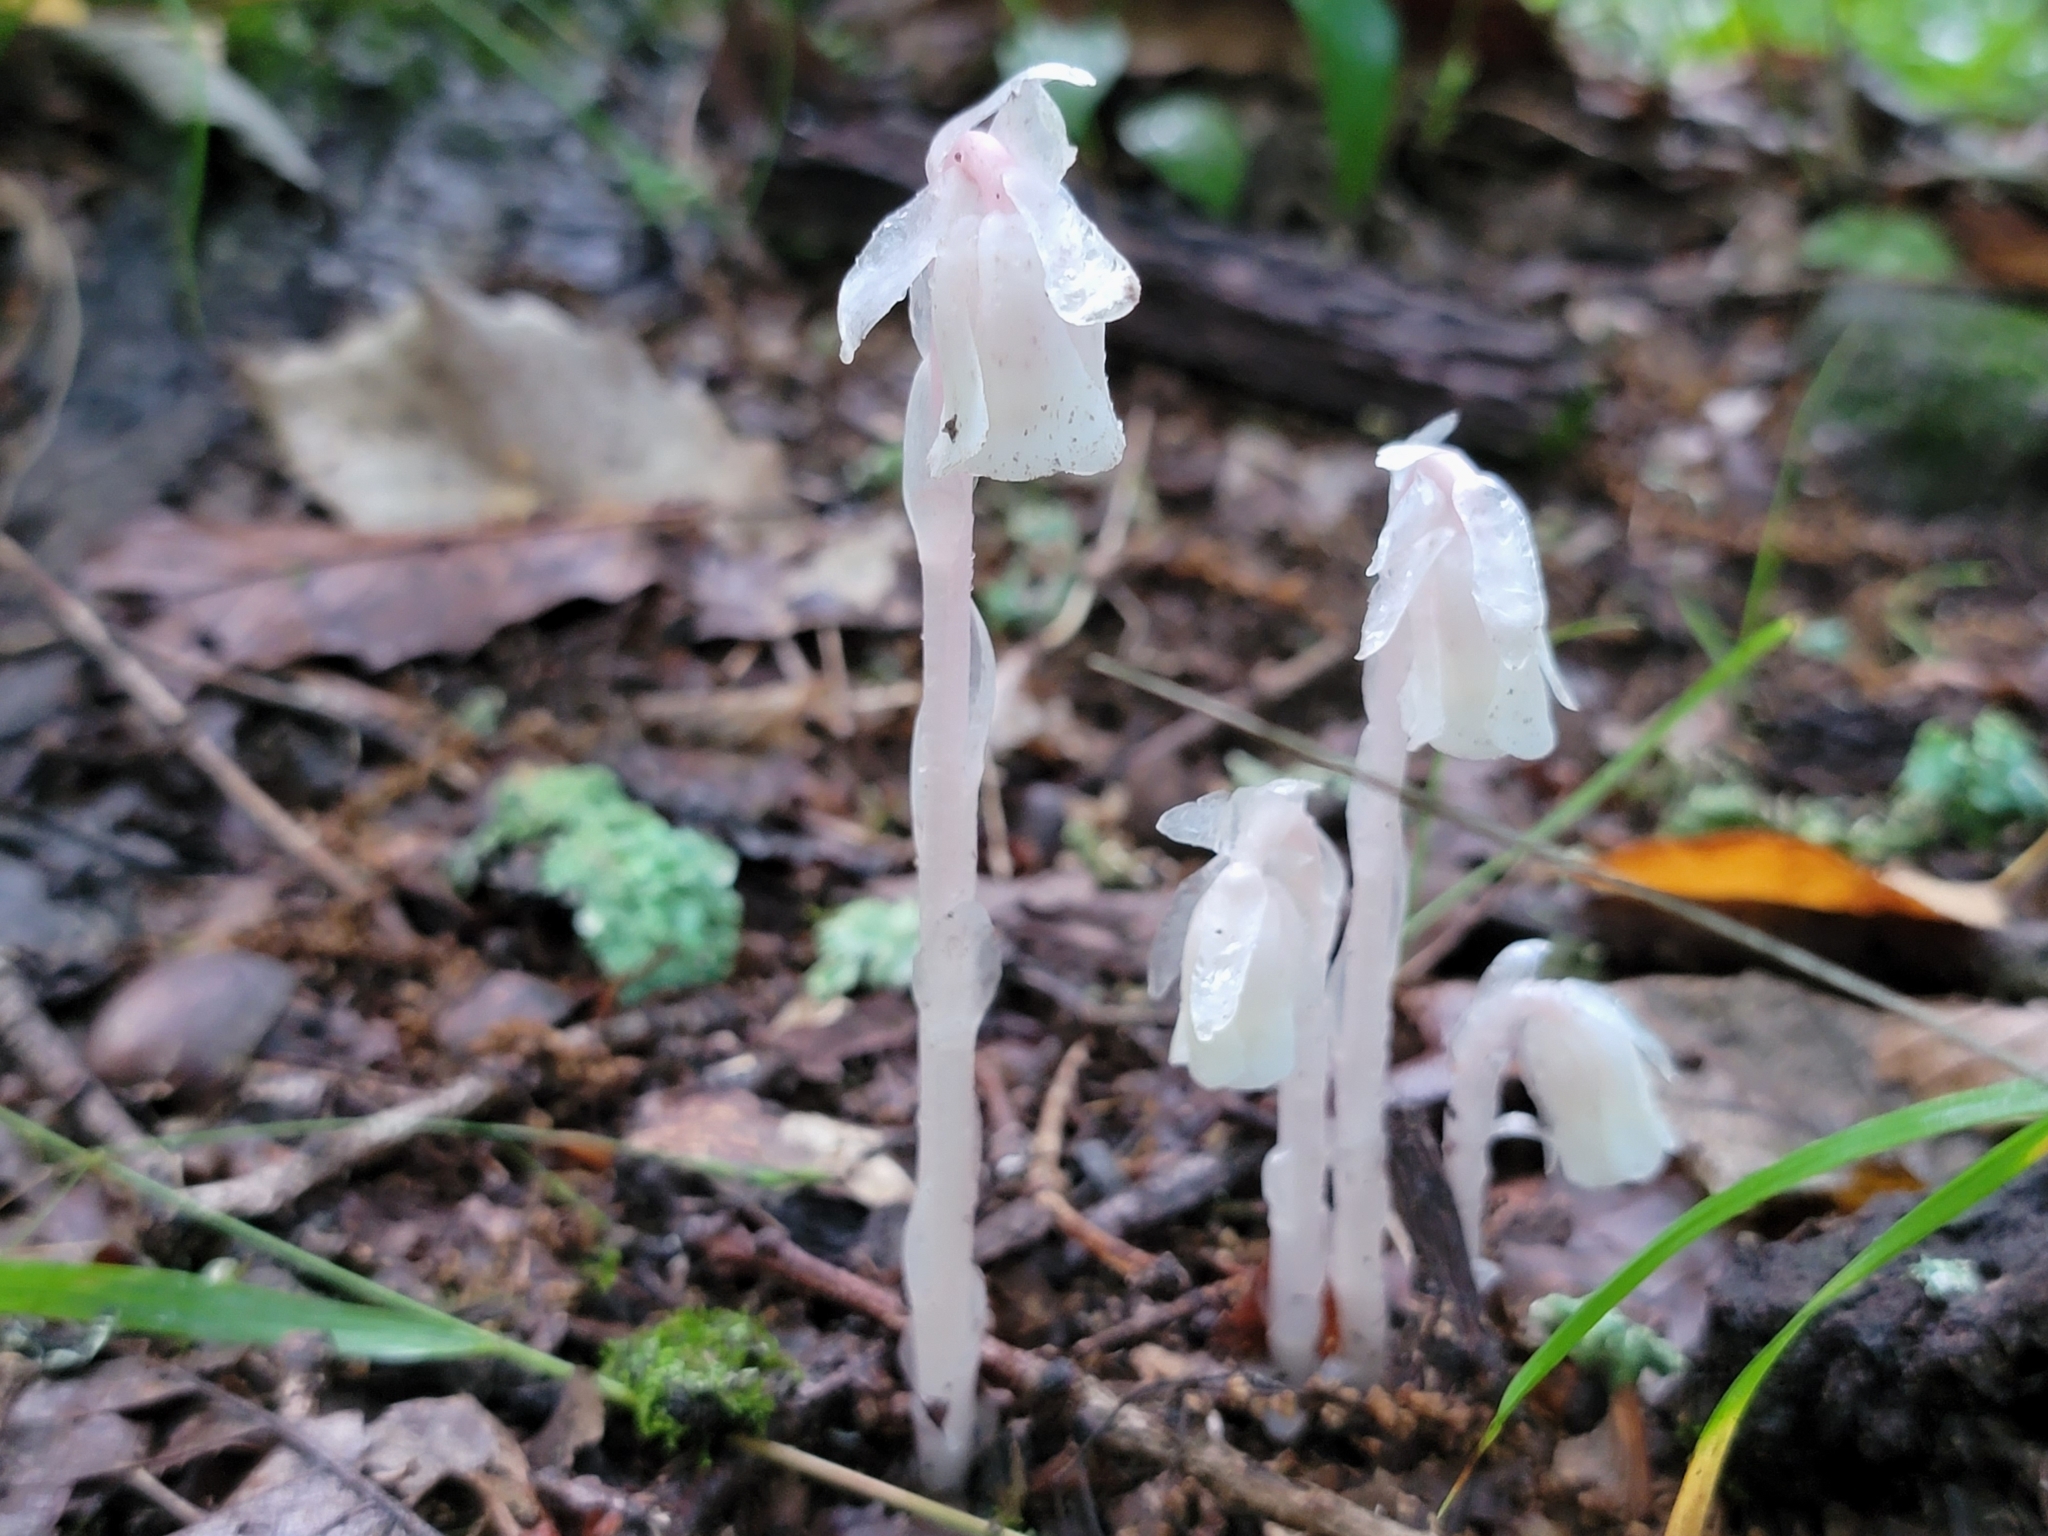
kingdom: Plantae
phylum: Tracheophyta
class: Magnoliopsida
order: Ericales
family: Ericaceae
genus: Monotropa
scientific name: Monotropa uniflora
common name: Convulsion root
